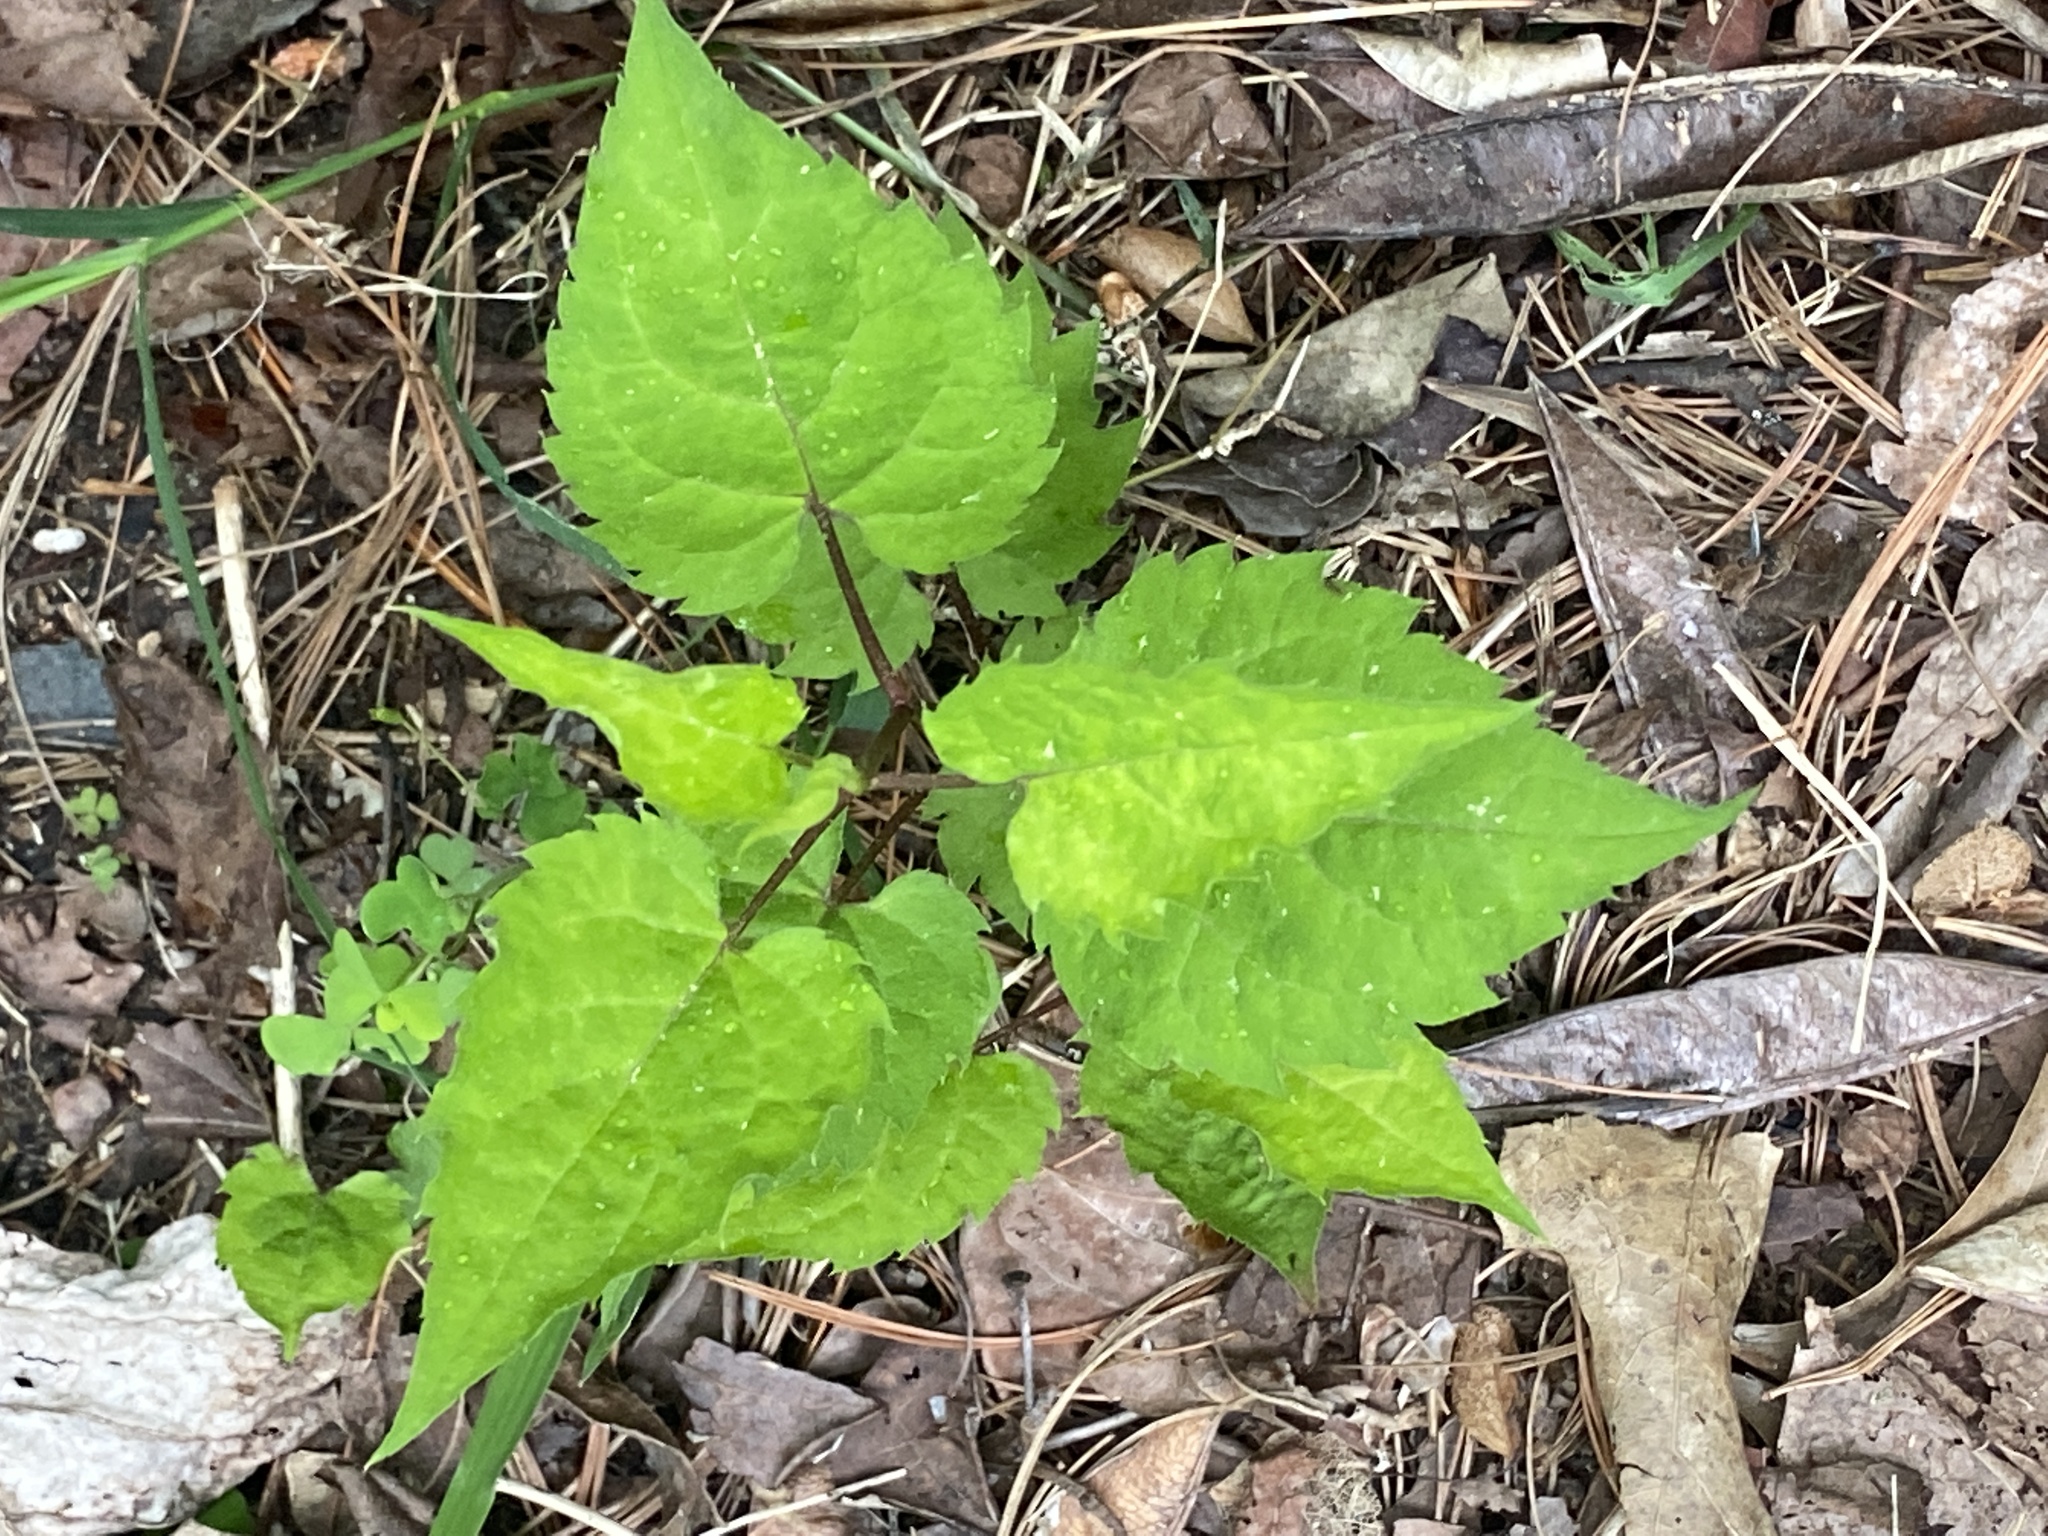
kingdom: Plantae
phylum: Tracheophyta
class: Magnoliopsida
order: Asterales
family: Asteraceae
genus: Eurybia
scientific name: Eurybia divaricata
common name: White wood aster
